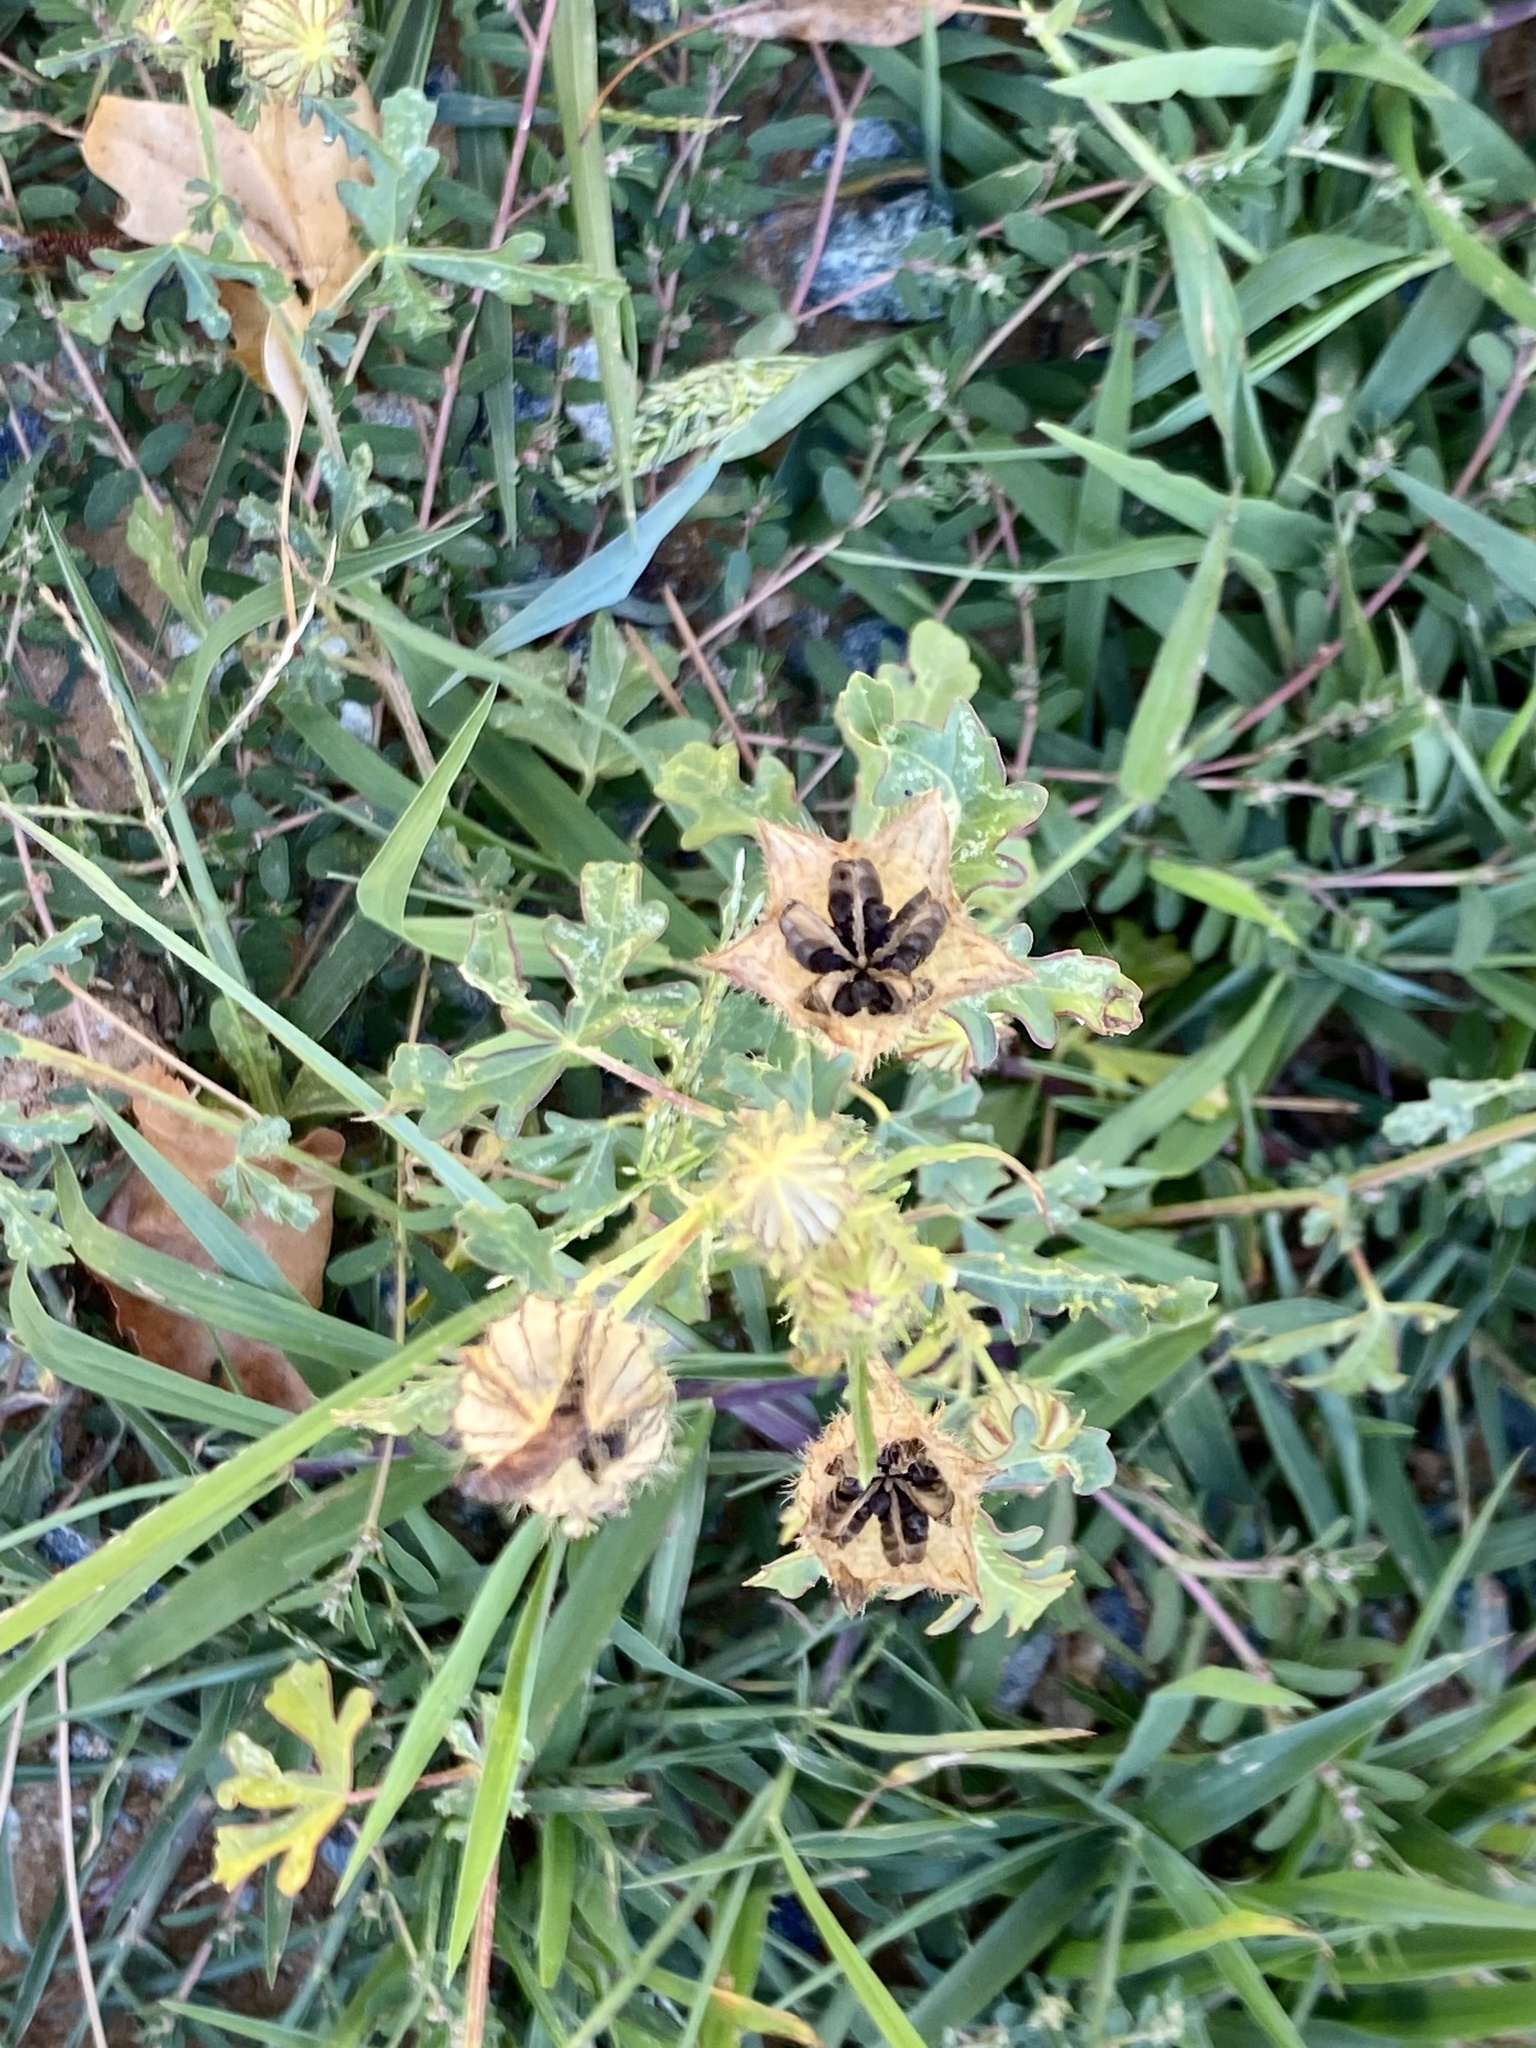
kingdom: Plantae
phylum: Tracheophyta
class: Magnoliopsida
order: Malvales
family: Malvaceae
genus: Hibiscus
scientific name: Hibiscus trionum
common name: Bladder ketmia
